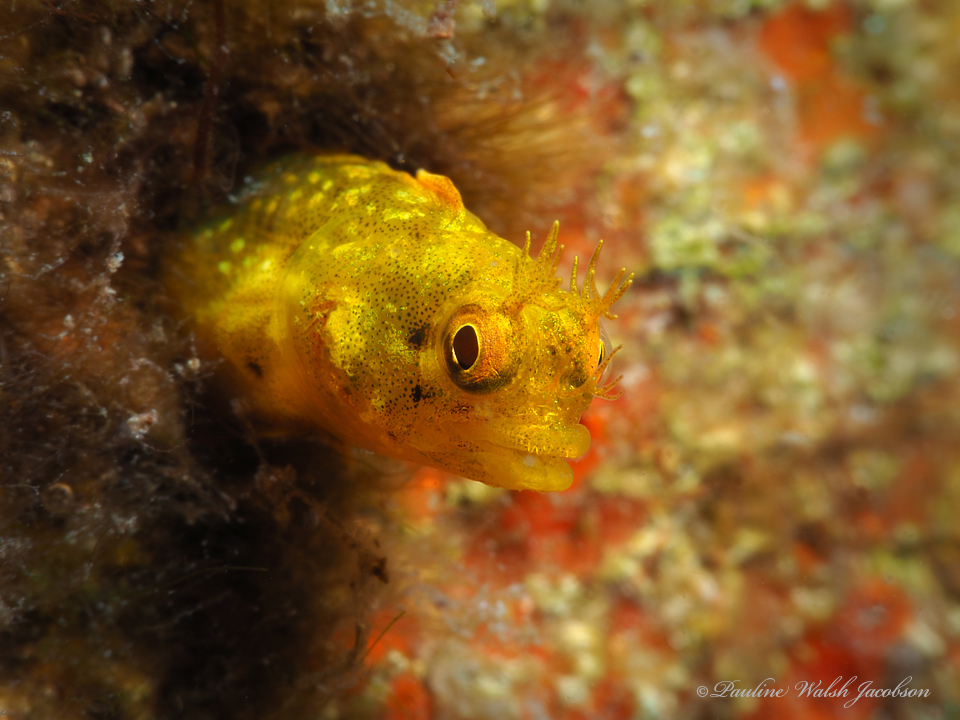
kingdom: Animalia
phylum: Chordata
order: Perciformes
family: Chaenopsidae
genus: Acanthemblemaria
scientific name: Acanthemblemaria aspera
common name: Roughhead blenny
